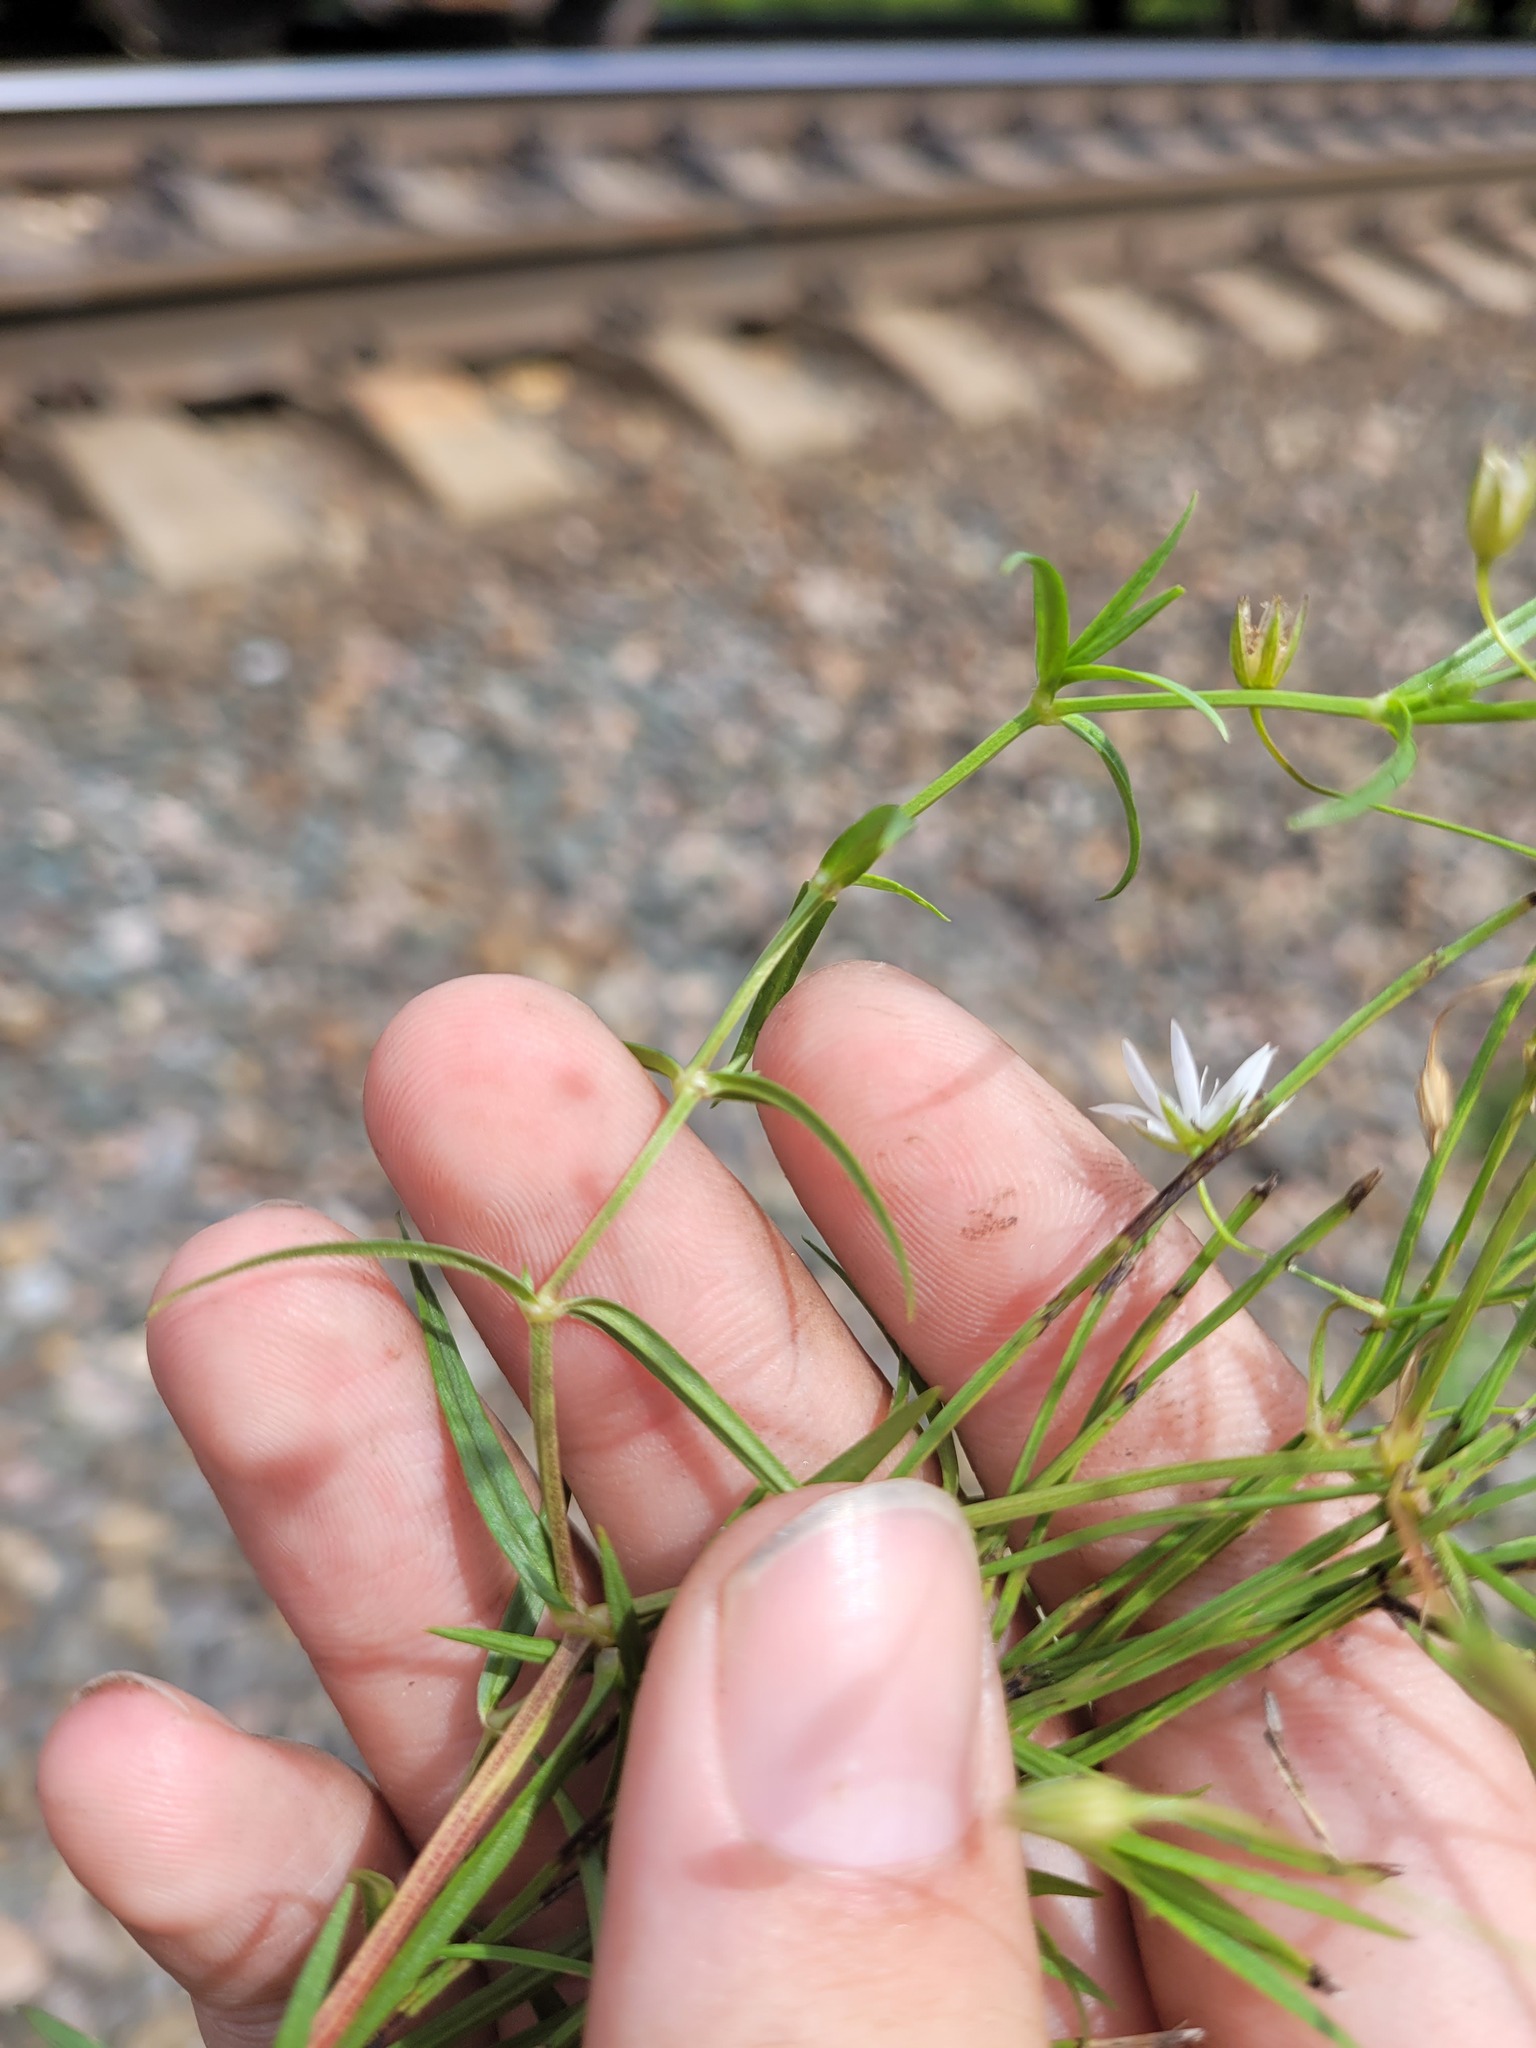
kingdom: Plantae
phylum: Tracheophyta
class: Magnoliopsida
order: Caryophyllales
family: Caryophyllaceae
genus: Stellaria
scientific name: Stellaria graminea
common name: Grass-like starwort
